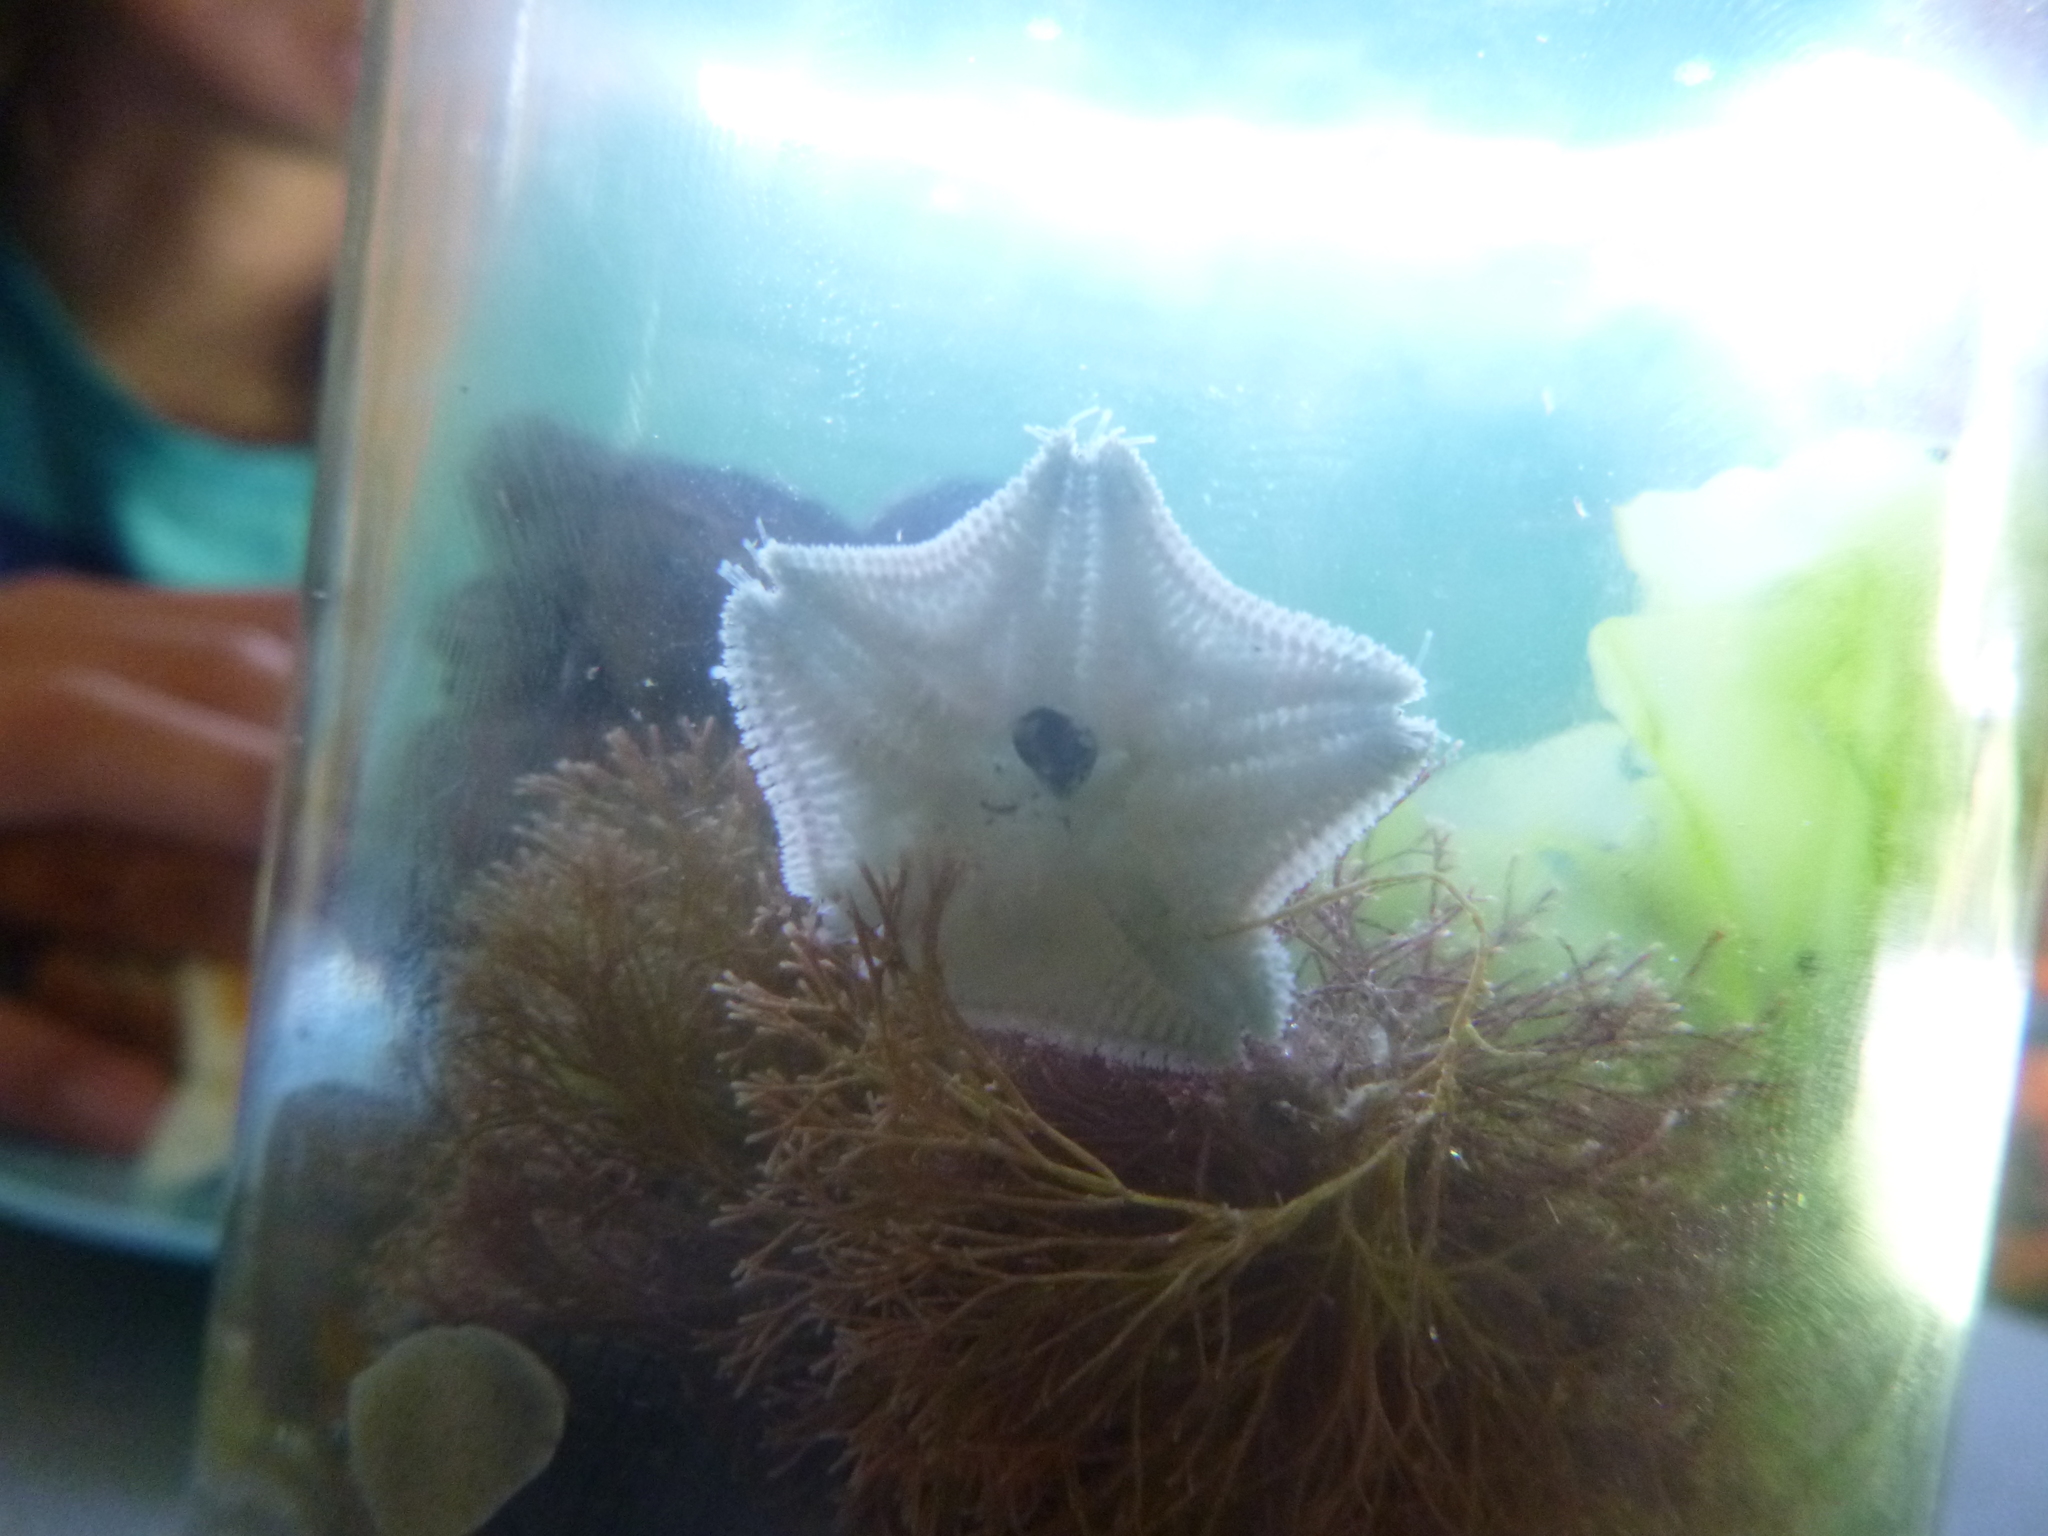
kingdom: Plantae
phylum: Rhodophyta
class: Florideophyceae
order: Corallinales
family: Corallinaceae
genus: Jania
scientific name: Jania
